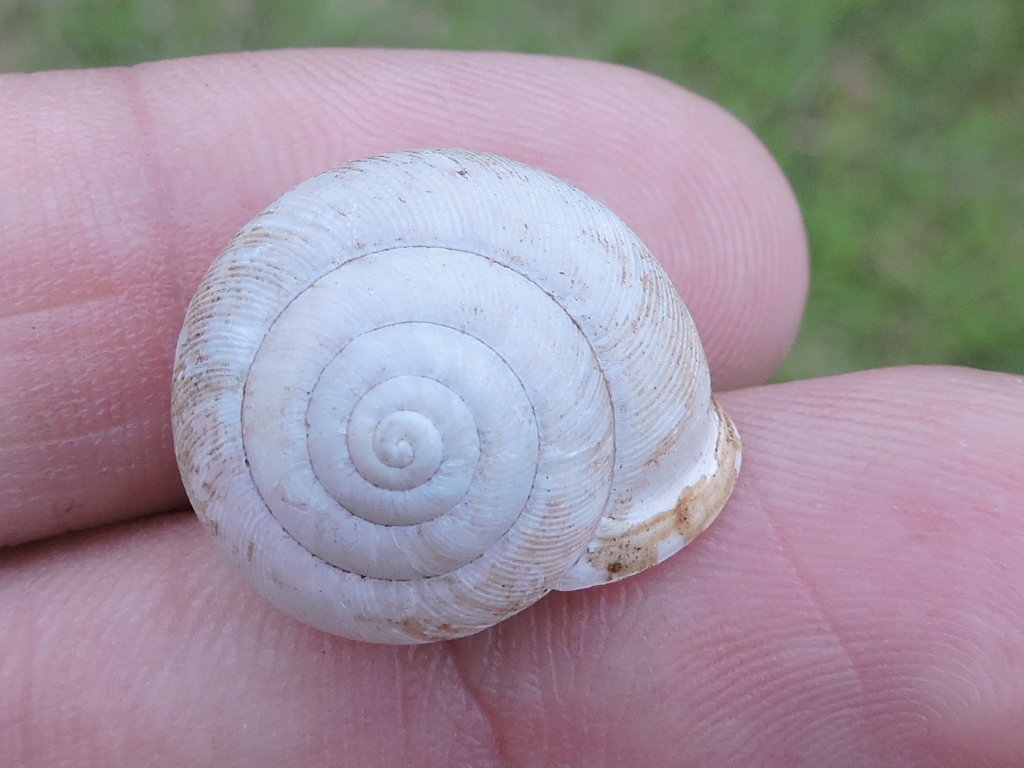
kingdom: Animalia
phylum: Mollusca
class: Gastropoda
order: Stylommatophora
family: Polygyridae
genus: Patera
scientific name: Patera roemeri
